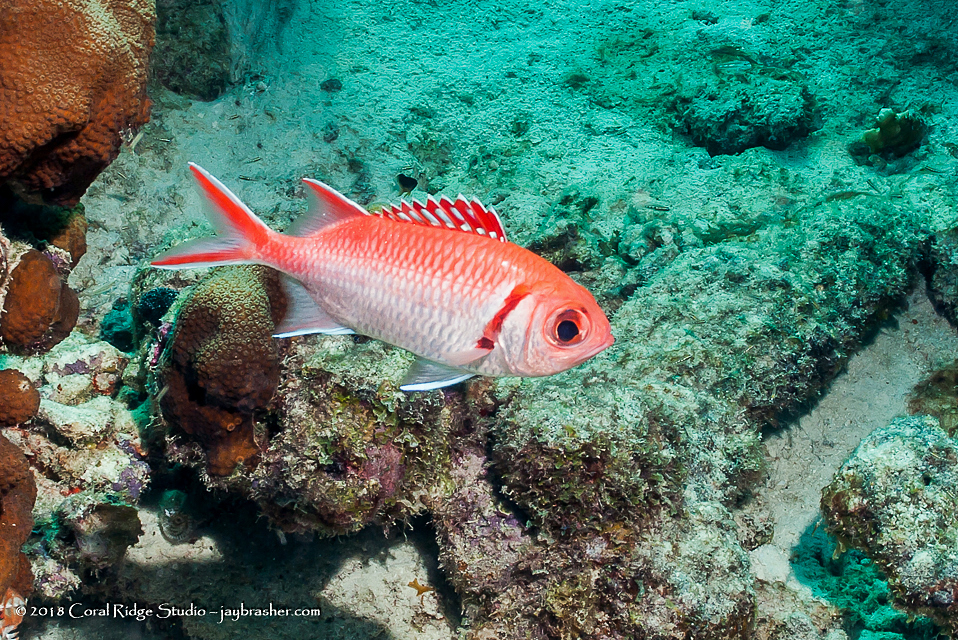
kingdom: Animalia
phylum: Chordata
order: Beryciformes
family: Holocentridae
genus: Myripristis
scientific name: Myripristis jacobus
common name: Blackbar soldierfish
